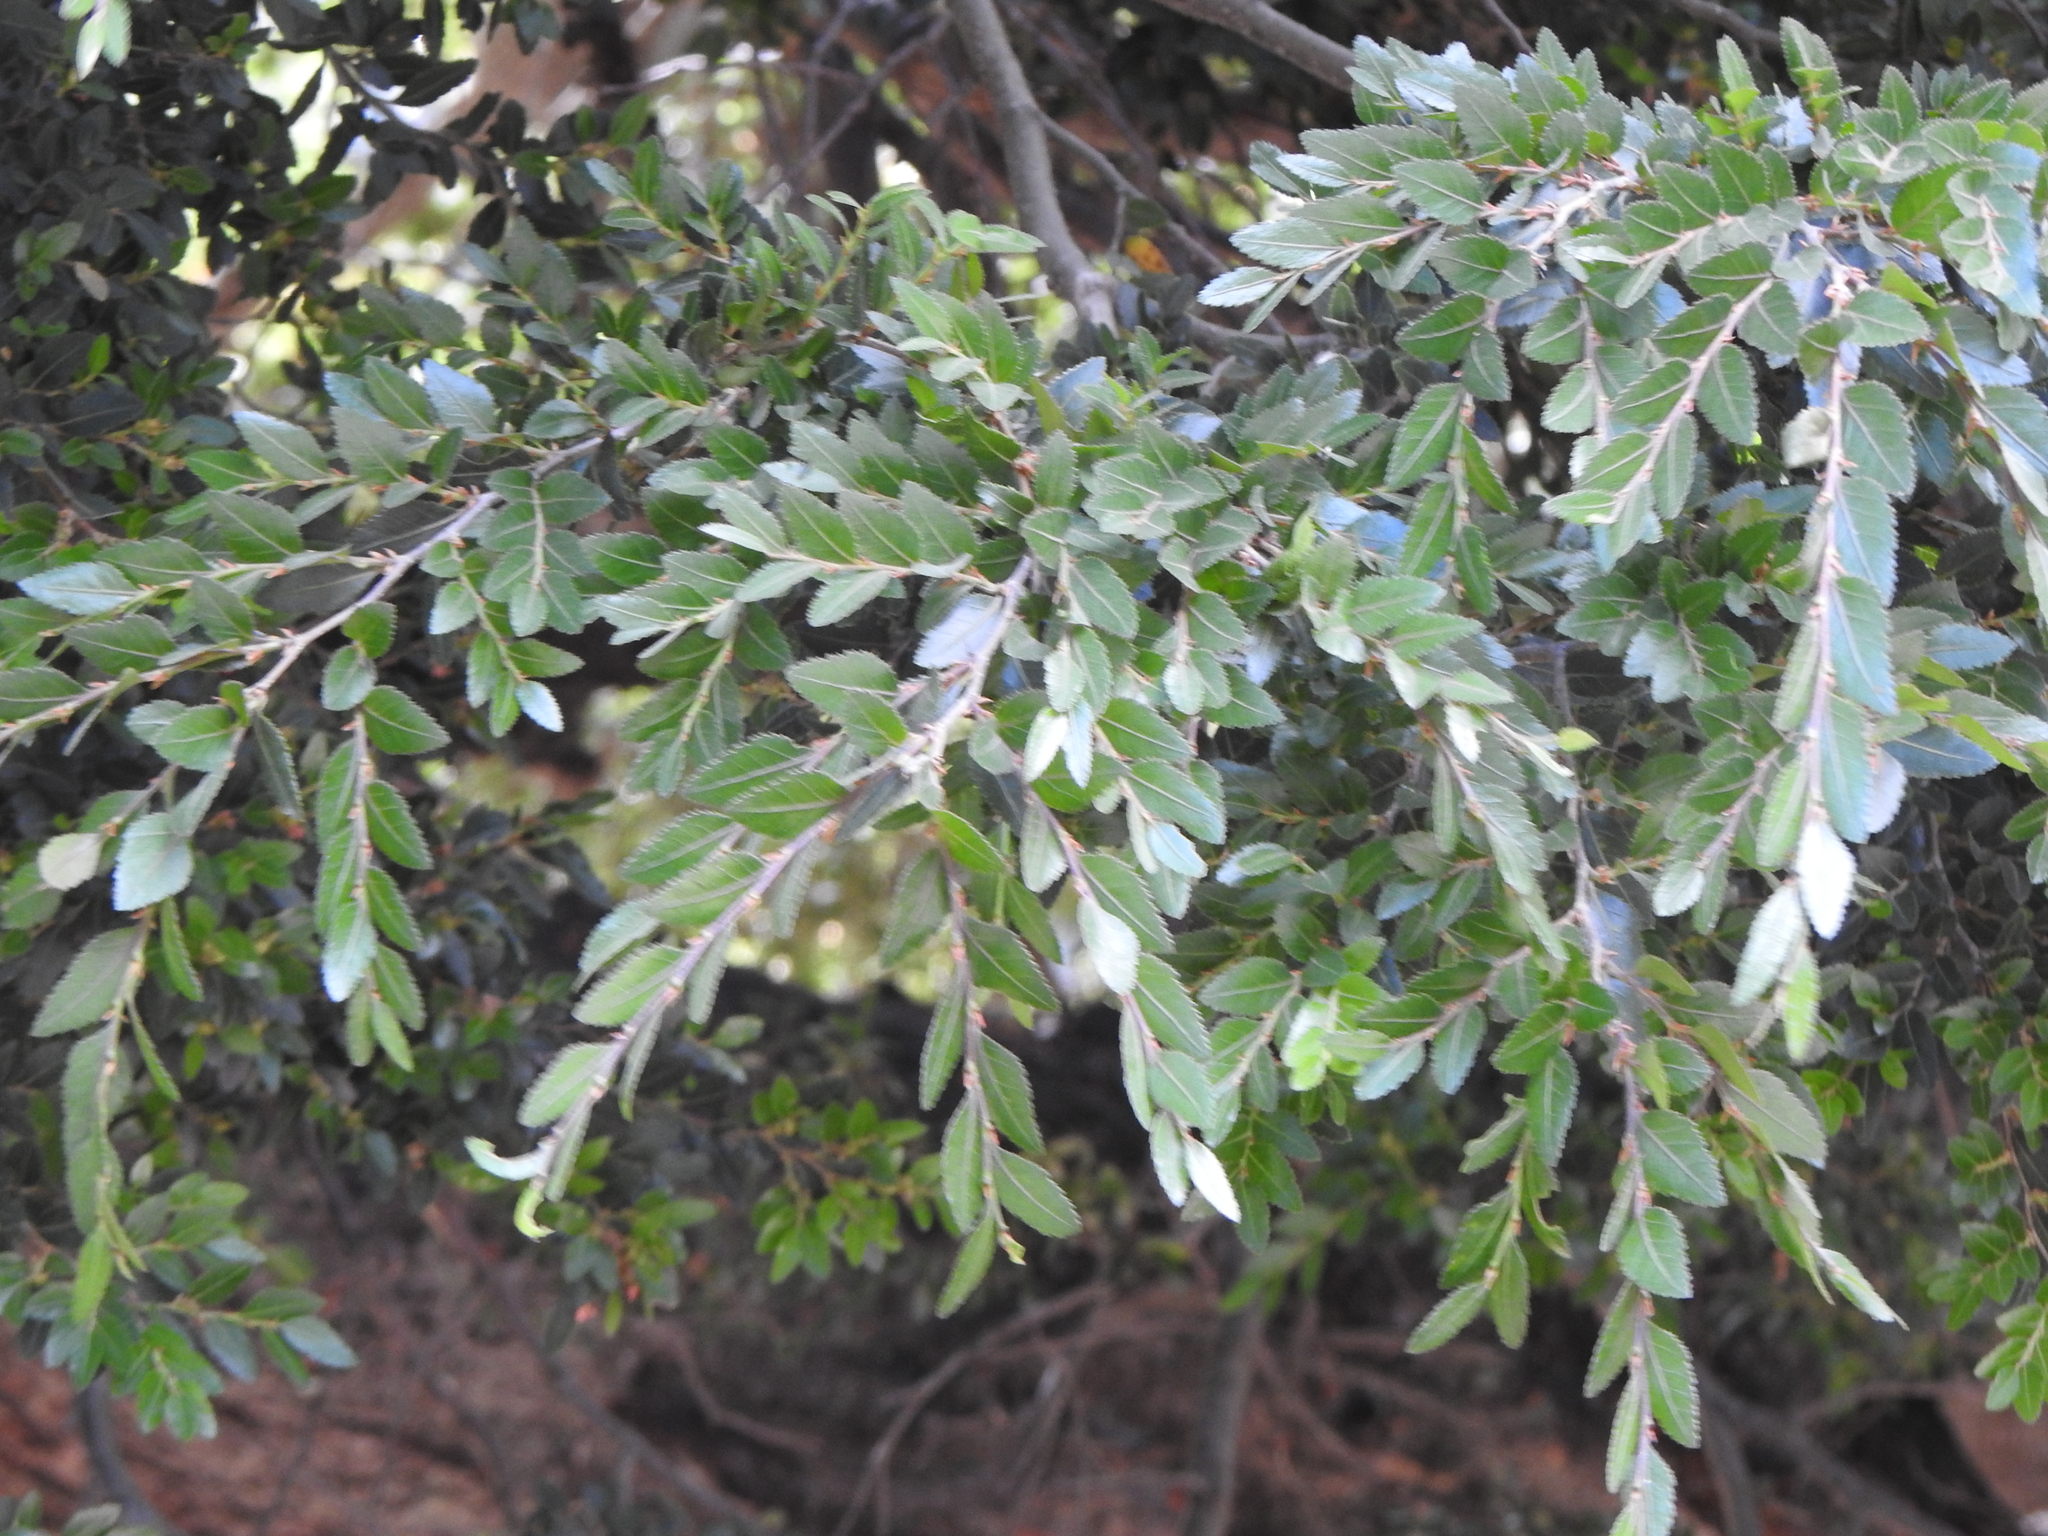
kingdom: Plantae
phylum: Tracheophyta
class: Magnoliopsida
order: Fagales
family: Nothofagaceae
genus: Nothofagus
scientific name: Nothofagus dombeyi
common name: Coigue
